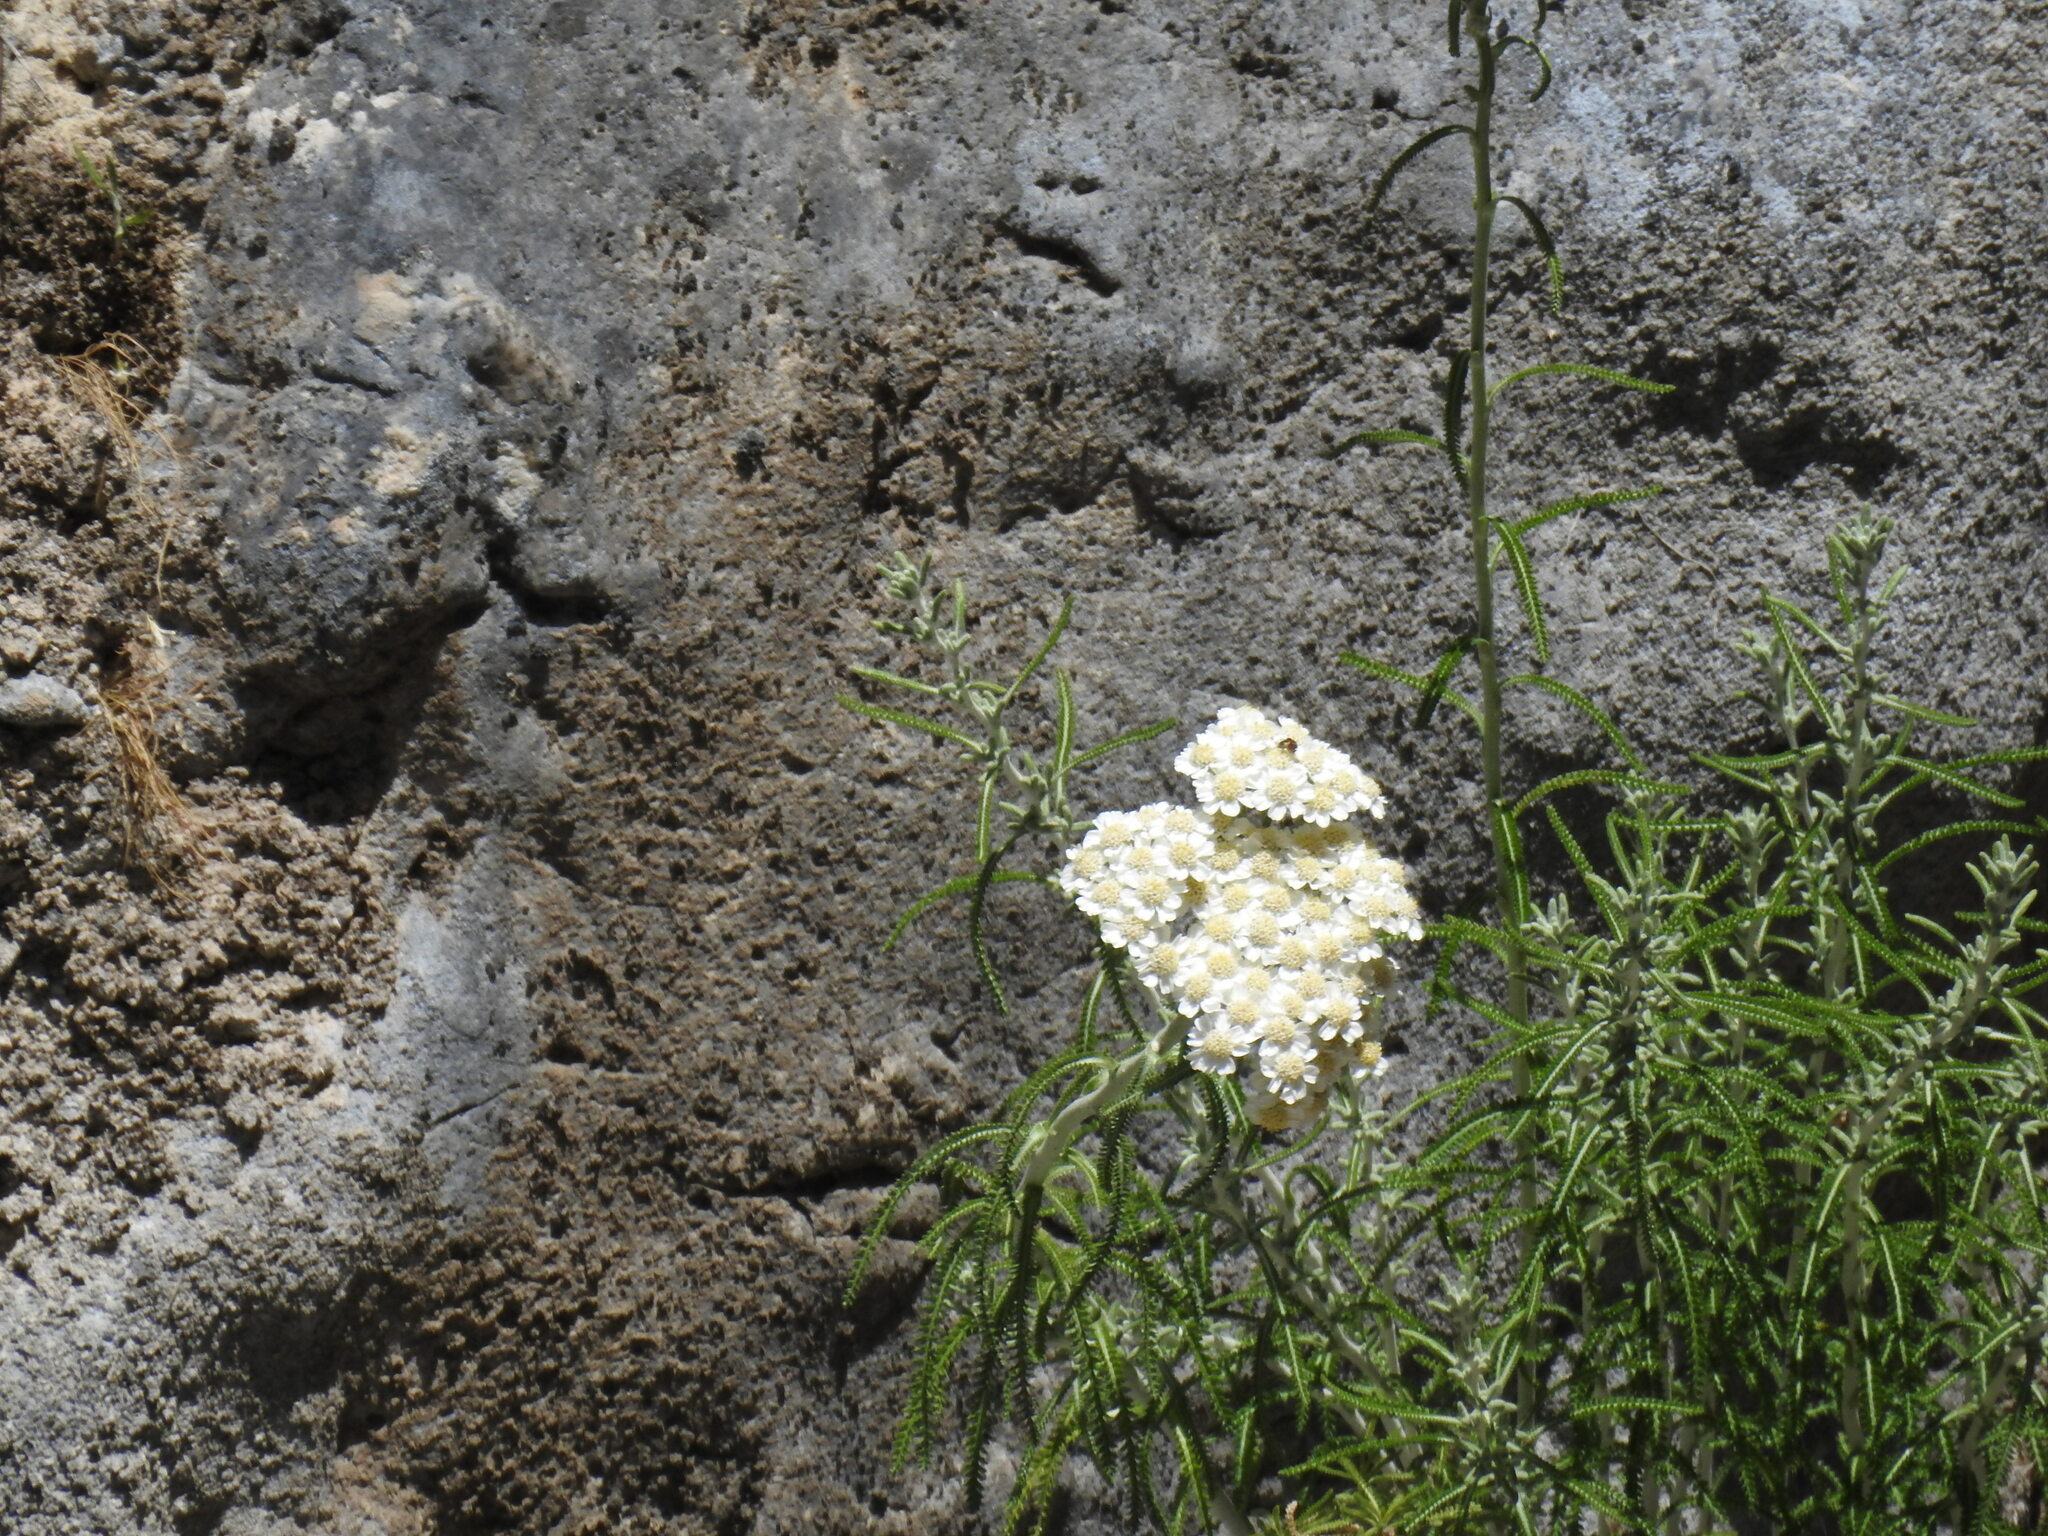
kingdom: Plantae
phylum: Tracheophyta
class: Magnoliopsida
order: Asterales
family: Asteraceae
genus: Achillea
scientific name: Achillea cretica
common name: Chamomile-leaved lavender-cotton
